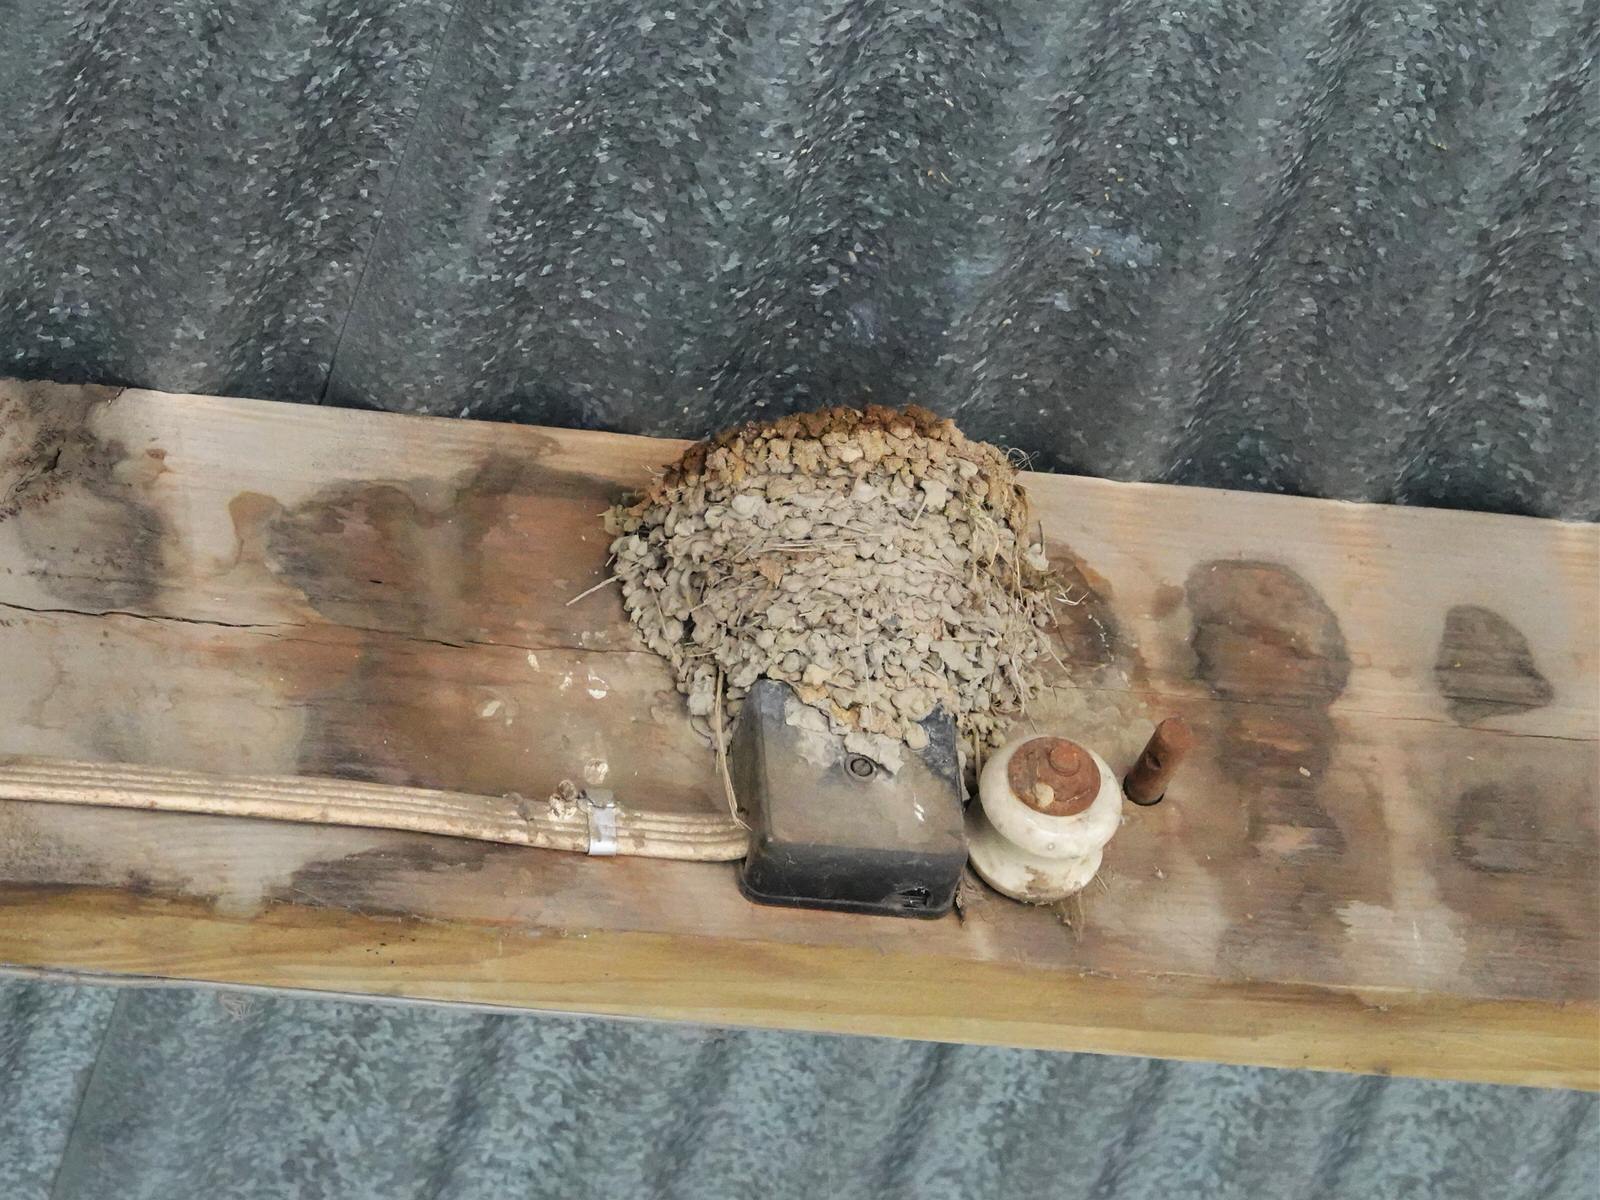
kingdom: Animalia
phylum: Chordata
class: Aves
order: Passeriformes
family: Hirundinidae
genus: Hirundo
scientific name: Hirundo neoxena
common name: Welcome swallow
